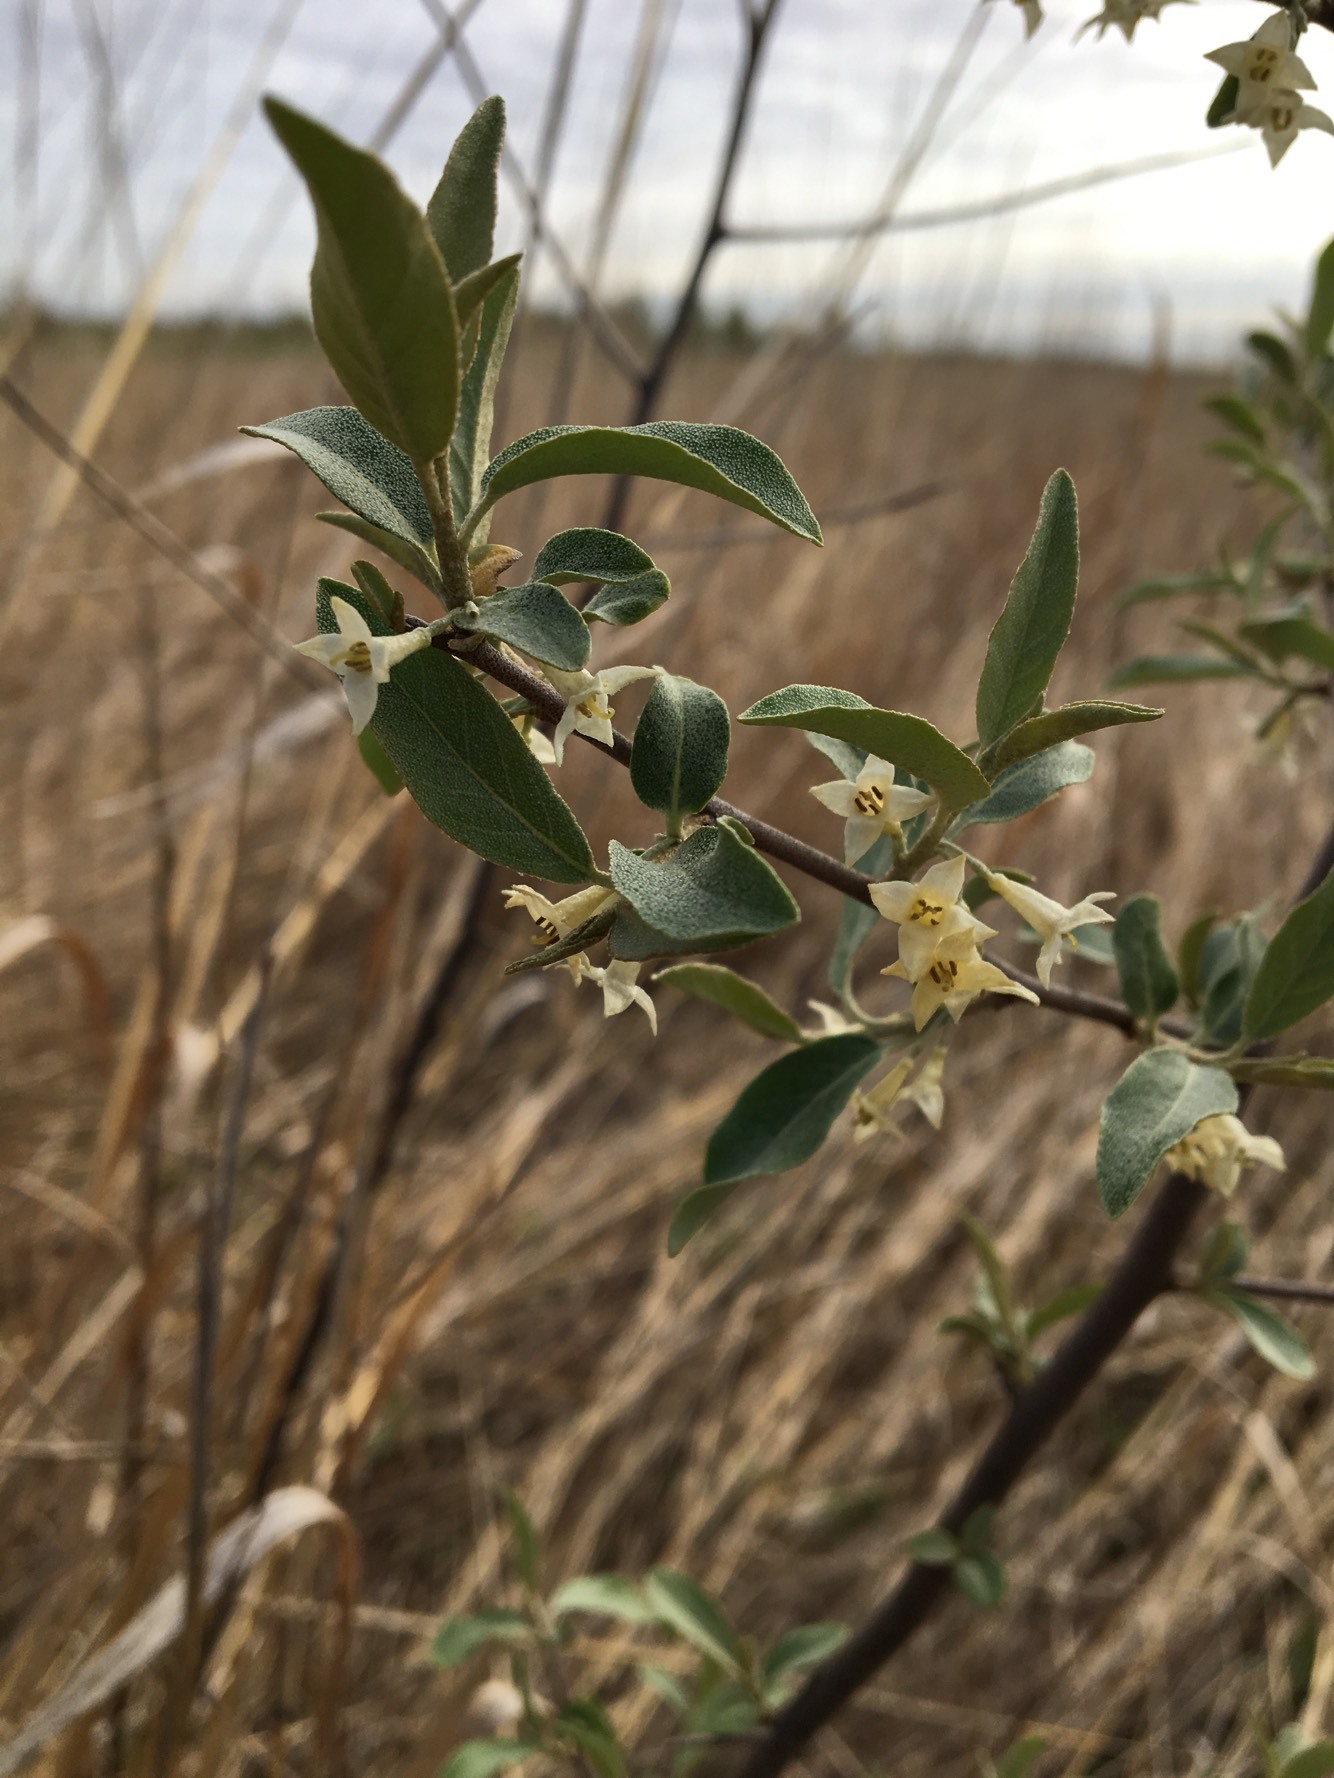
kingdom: Plantae
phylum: Tracheophyta
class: Magnoliopsida
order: Rosales
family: Elaeagnaceae
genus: Elaeagnus
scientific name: Elaeagnus umbellata
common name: Autumn olive
